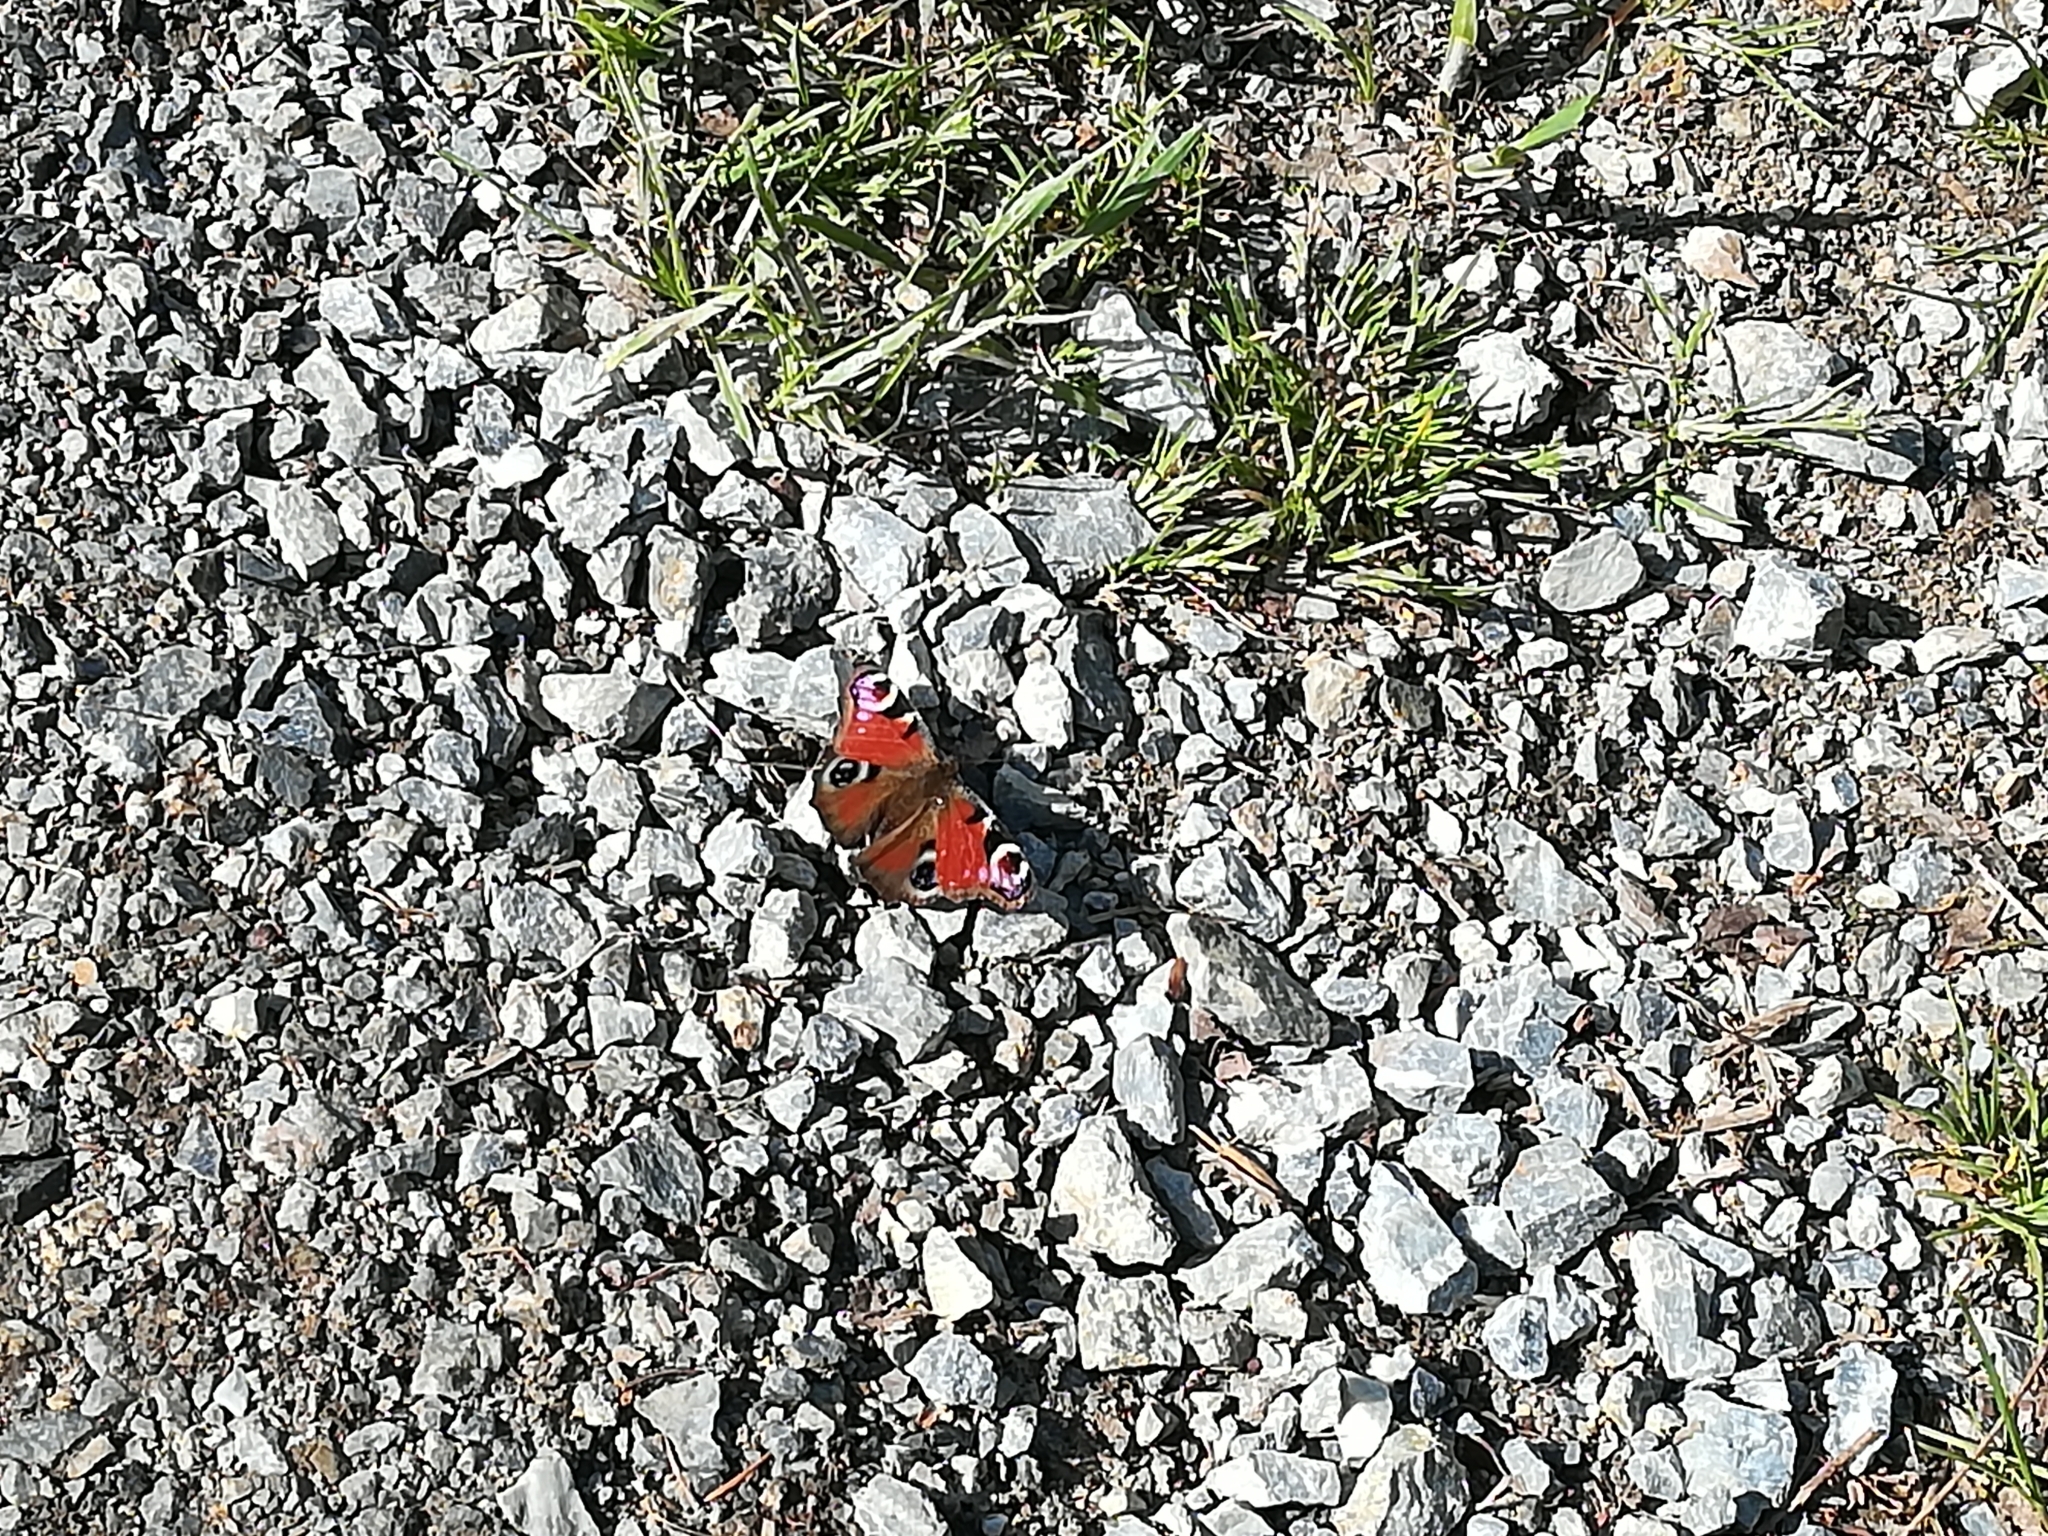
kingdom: Animalia
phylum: Arthropoda
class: Insecta
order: Lepidoptera
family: Nymphalidae
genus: Aglais
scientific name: Aglais io
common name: Peacock
